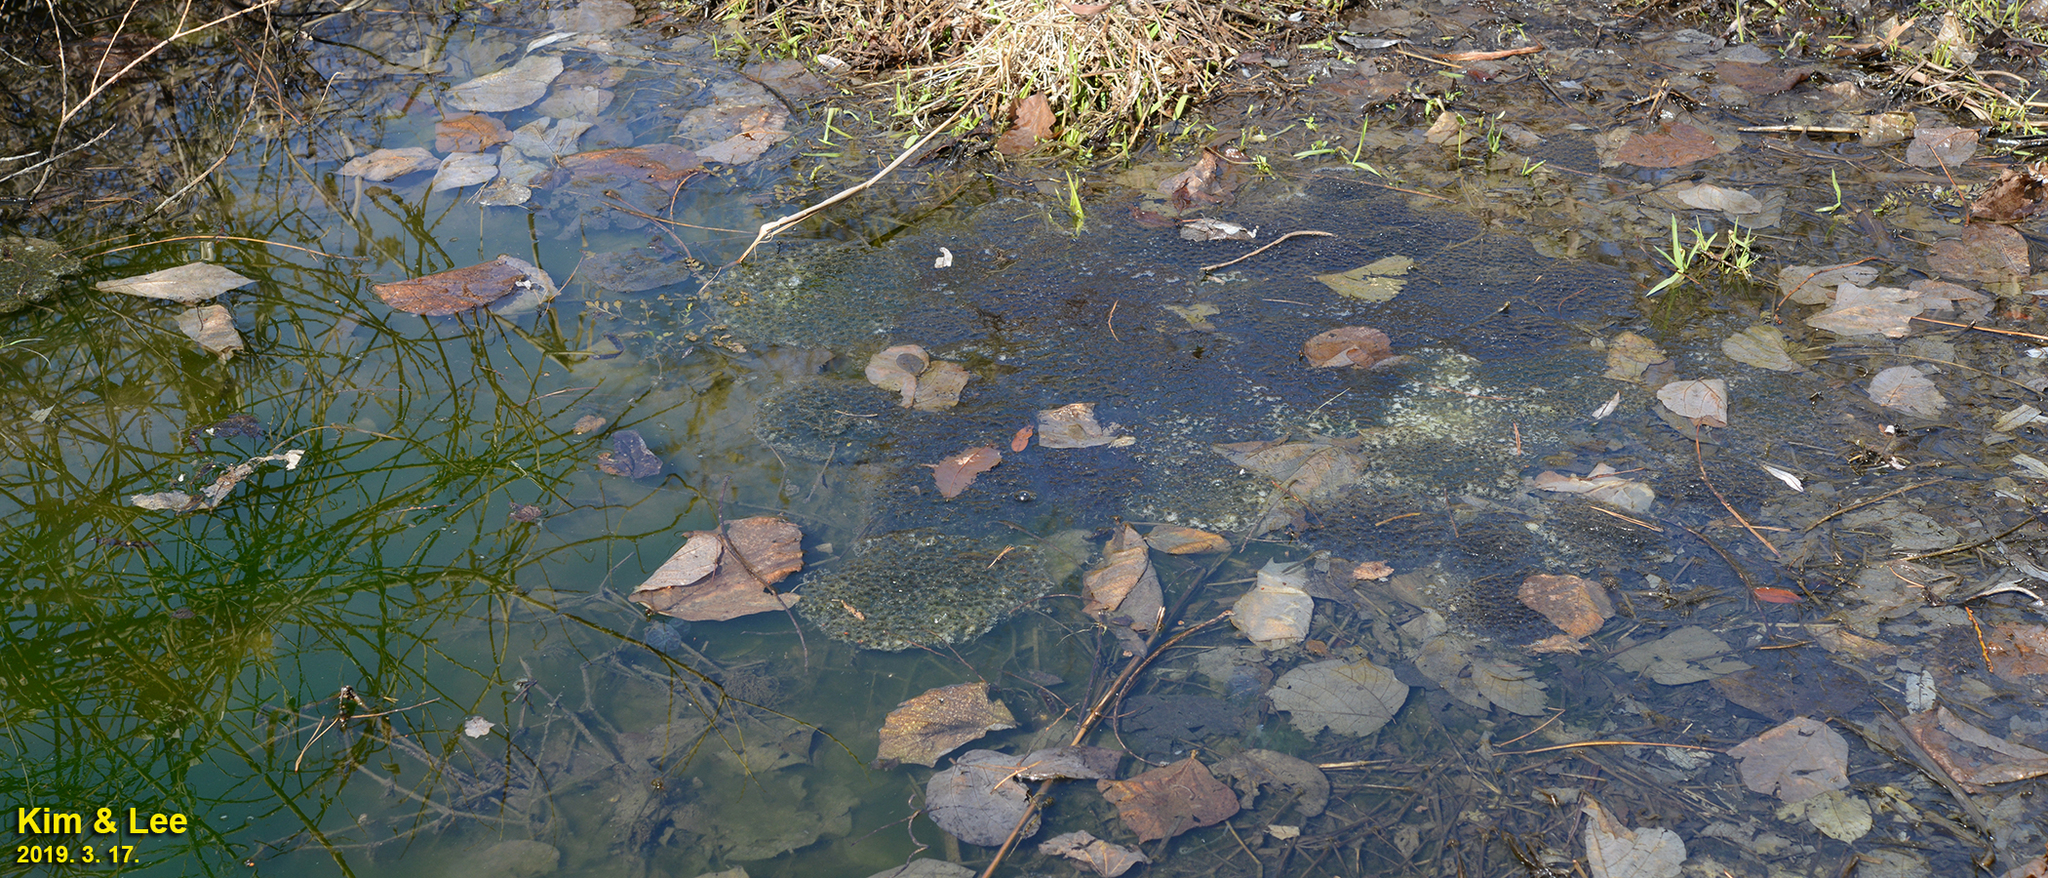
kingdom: Animalia
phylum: Chordata
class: Amphibia
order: Anura
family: Ranidae
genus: Rana
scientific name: Rana uenoi
